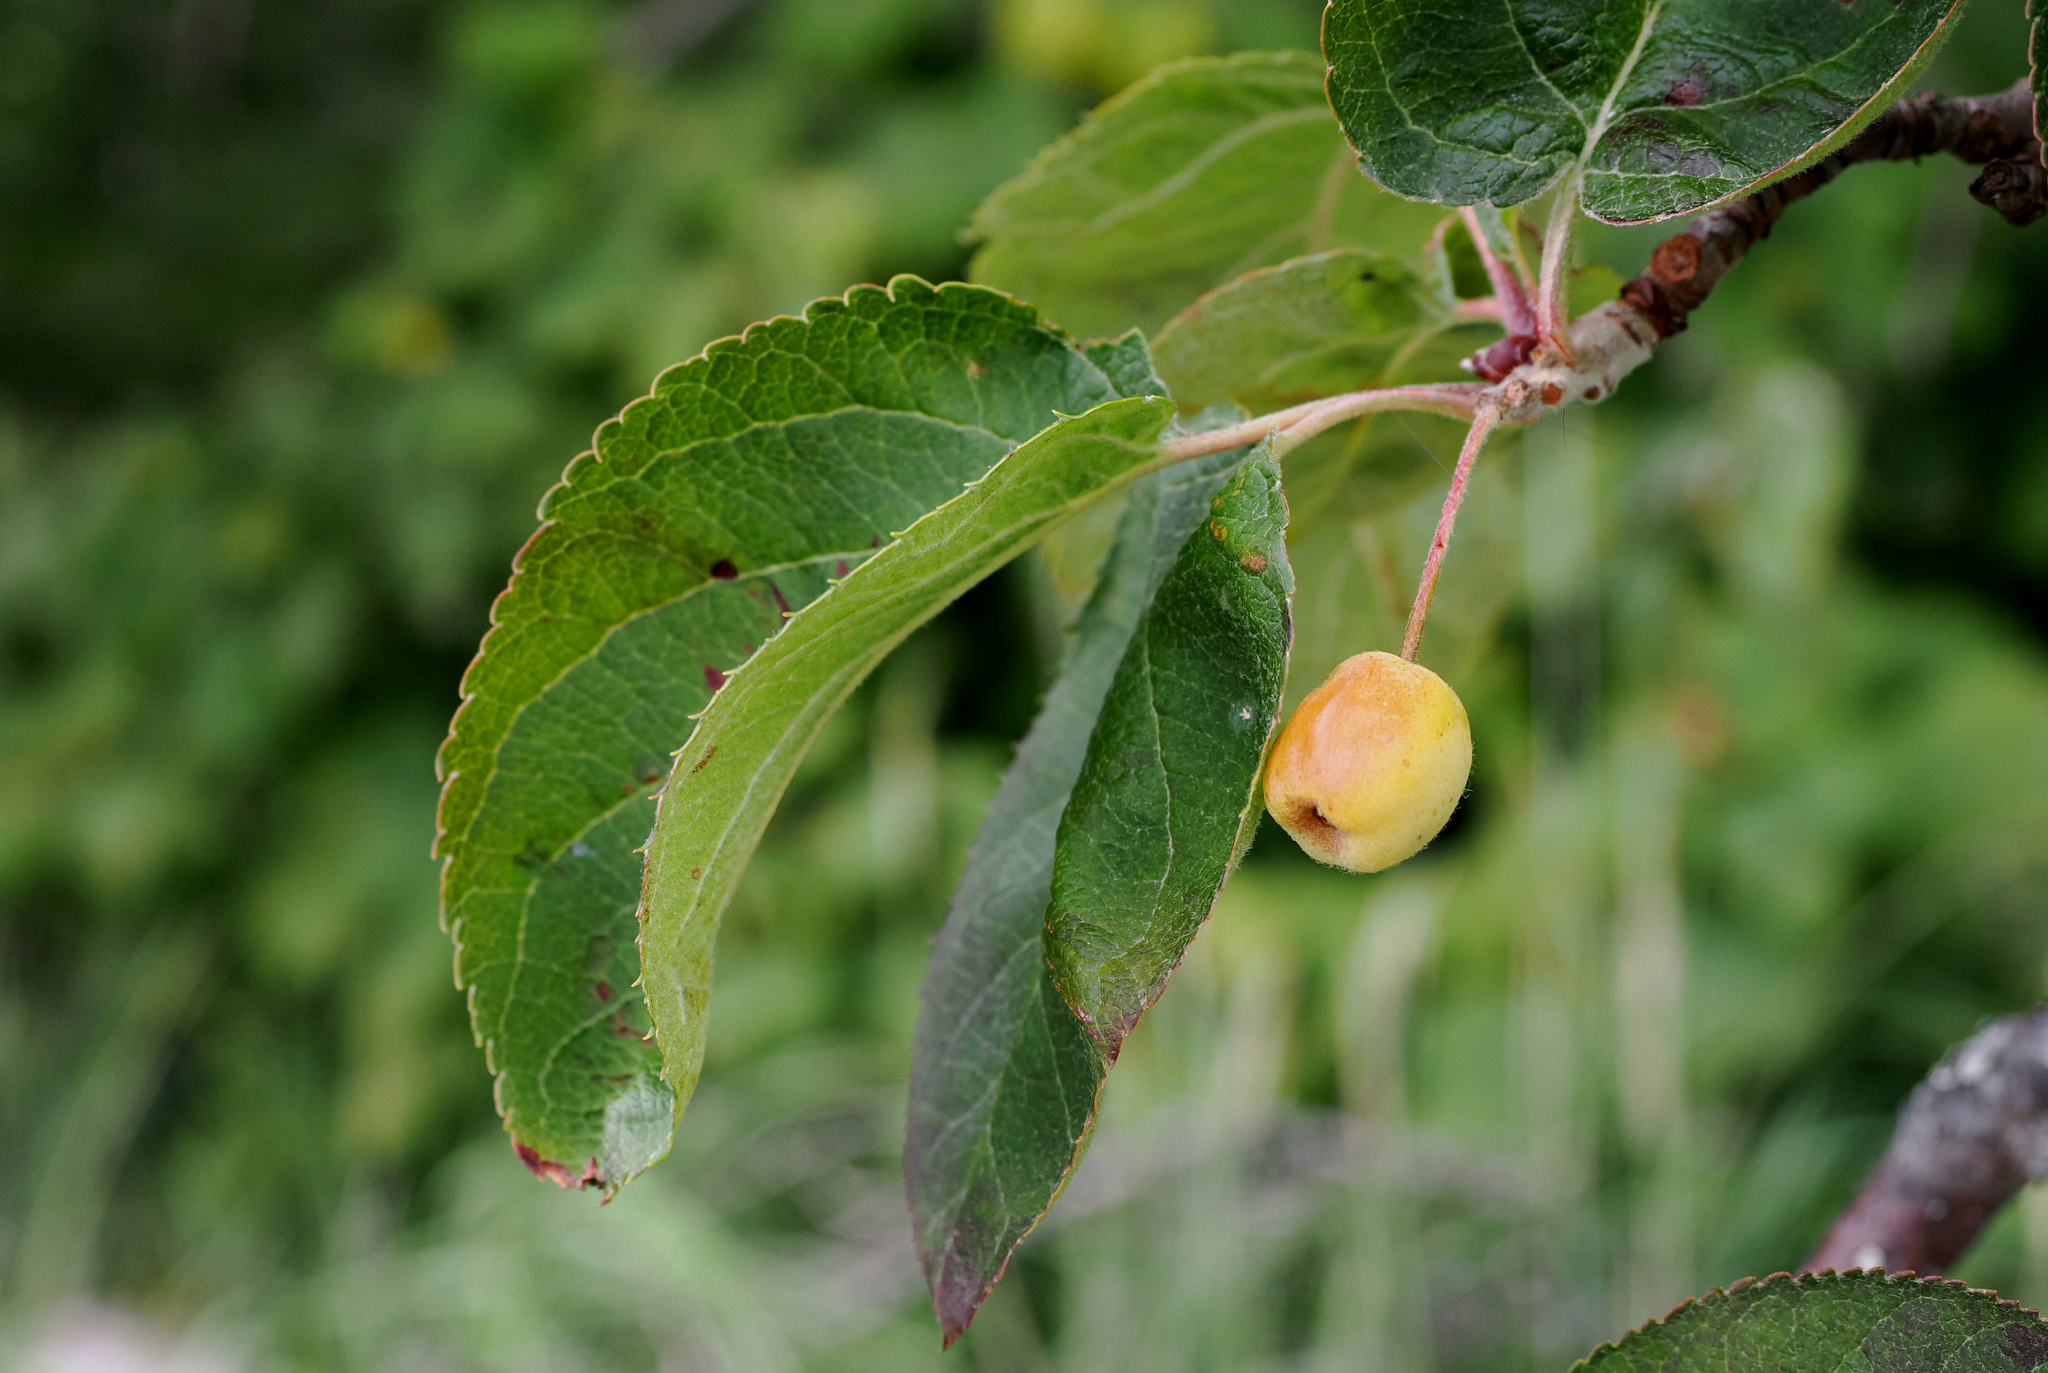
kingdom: Plantae
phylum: Tracheophyta
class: Magnoliopsida
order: Rosales
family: Rosaceae
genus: Malus
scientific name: Malus fusca
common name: Oregon crab apple
